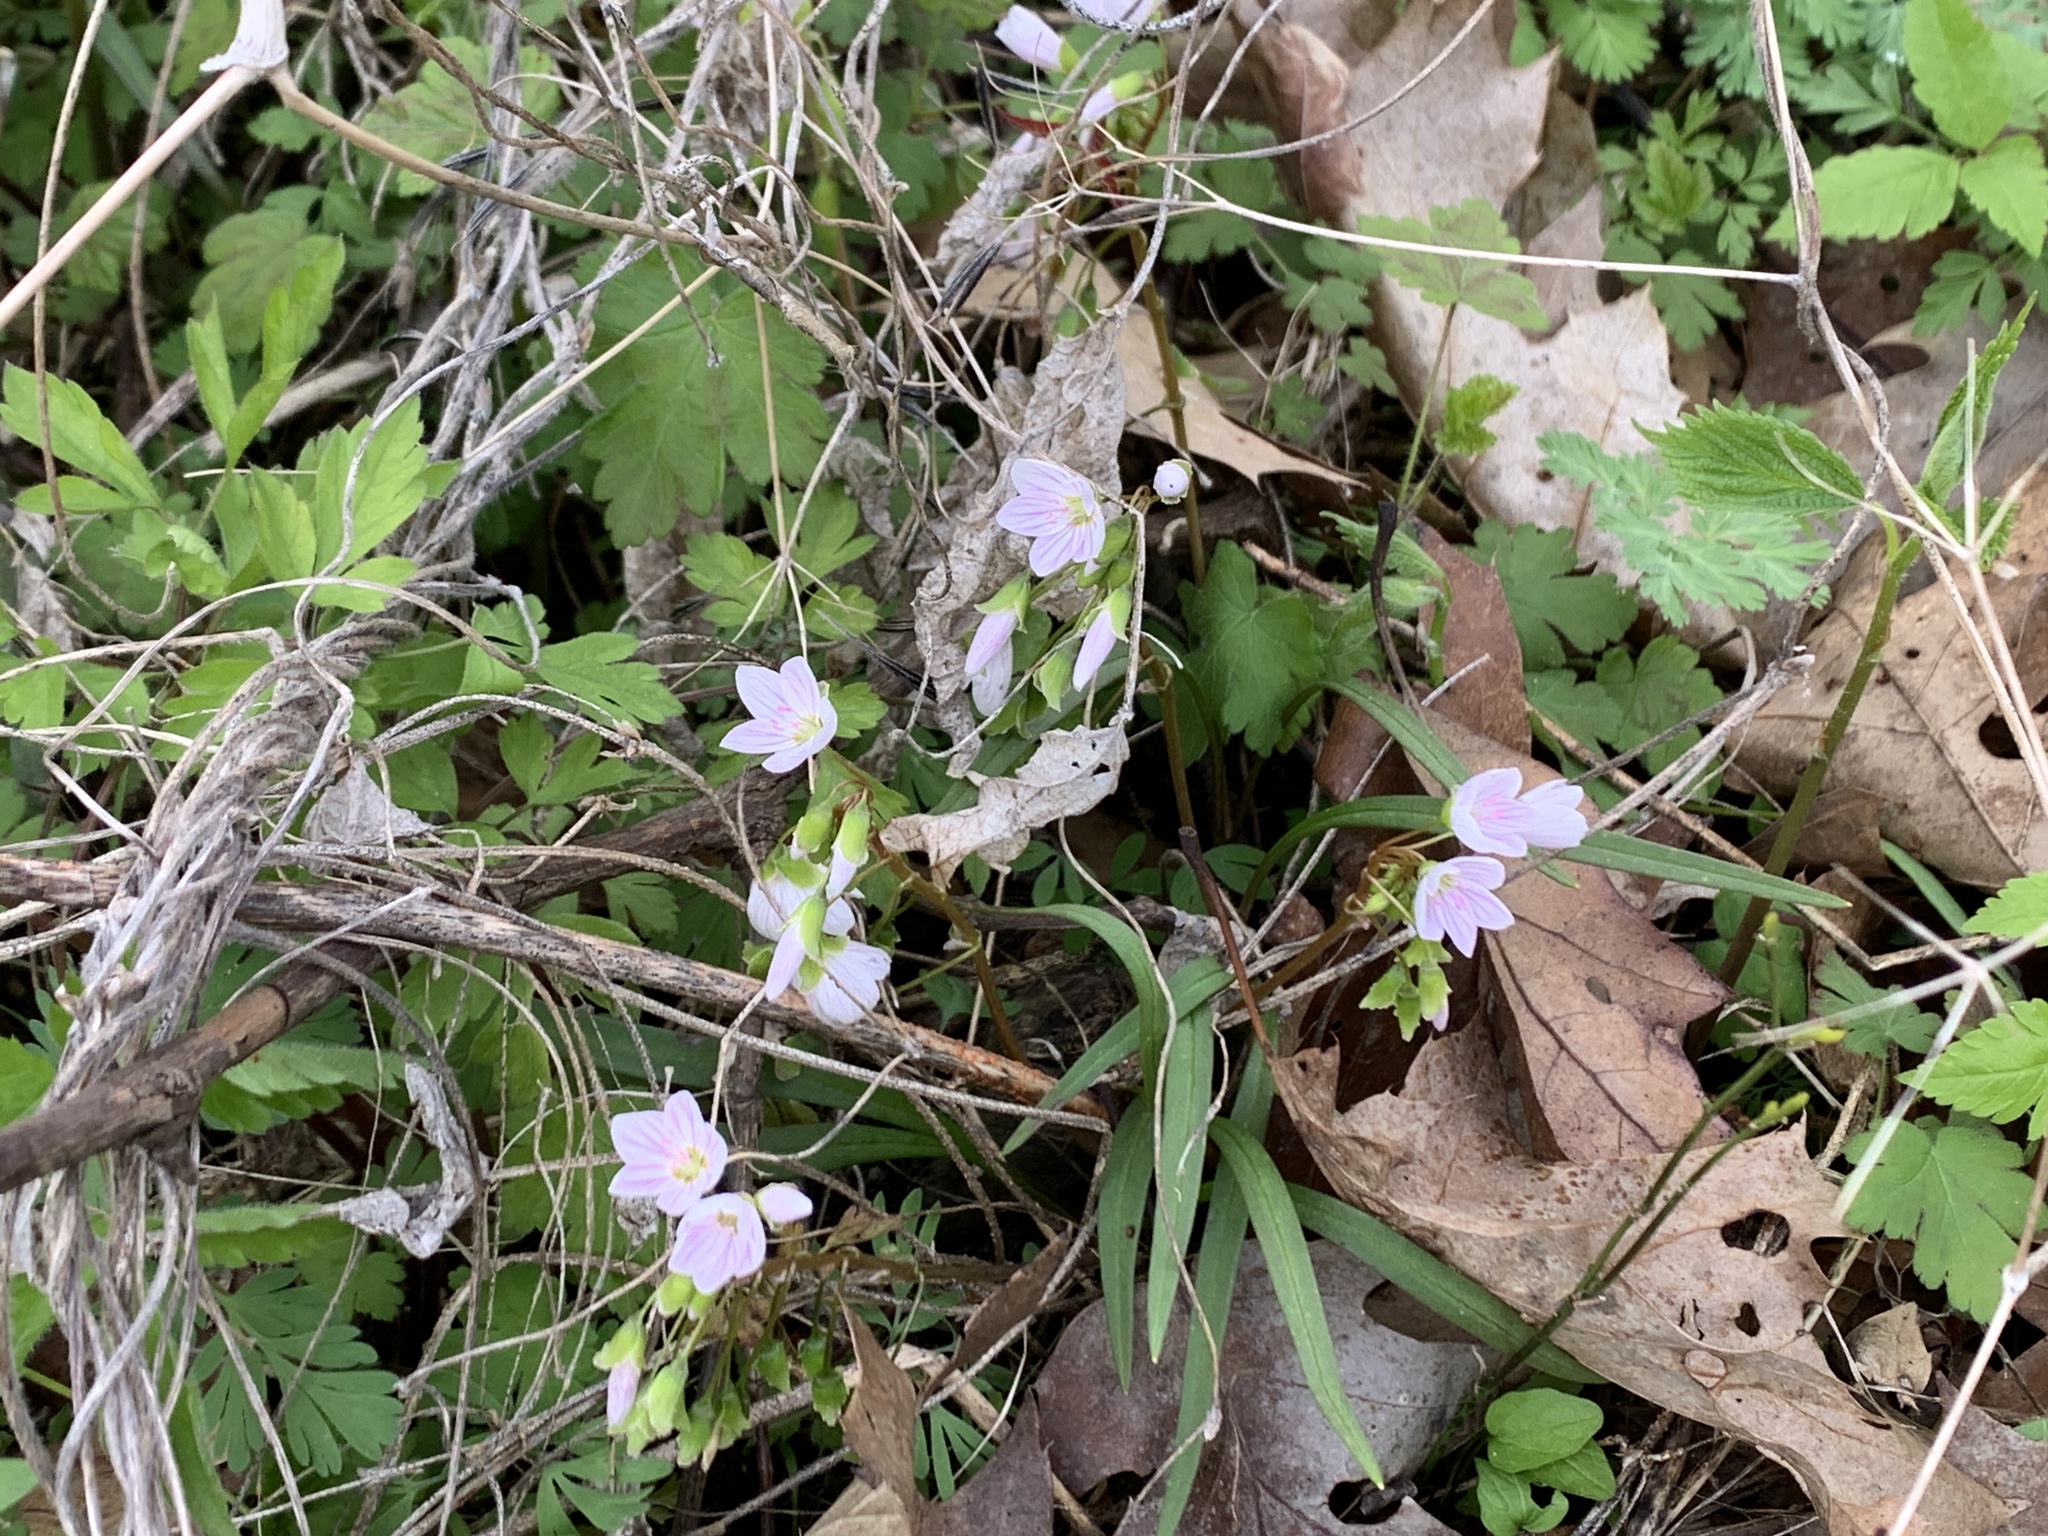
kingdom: Plantae
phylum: Tracheophyta
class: Magnoliopsida
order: Caryophyllales
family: Montiaceae
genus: Claytonia
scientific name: Claytonia virginica
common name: Virginia springbeauty
